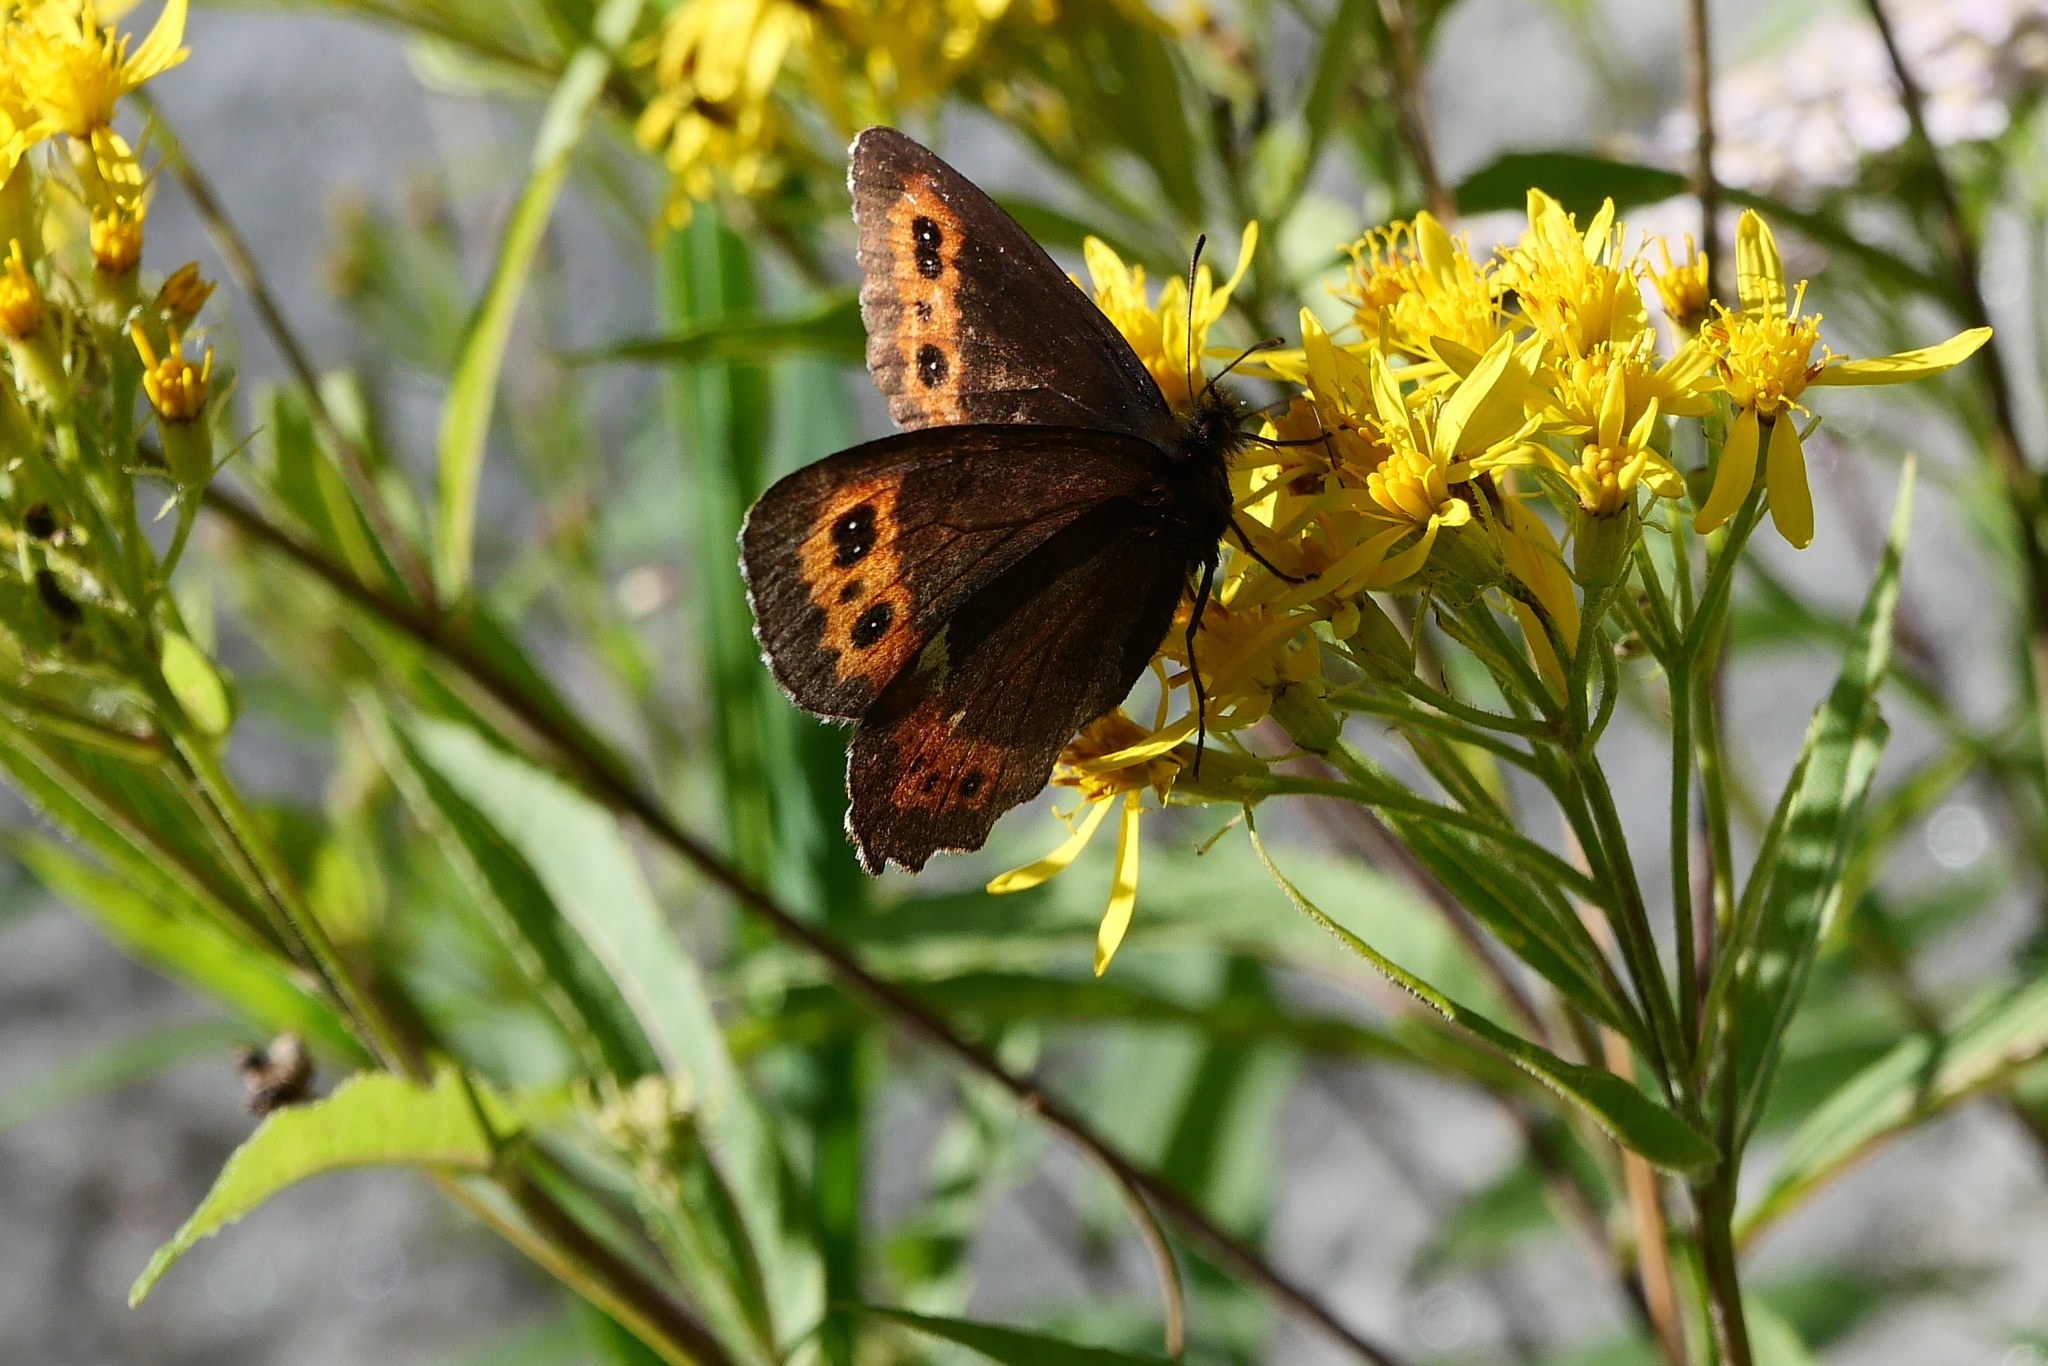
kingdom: Animalia
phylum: Arthropoda
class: Insecta
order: Lepidoptera
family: Nymphalidae
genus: Erebia
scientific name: Erebia ligea
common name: Arran brown
